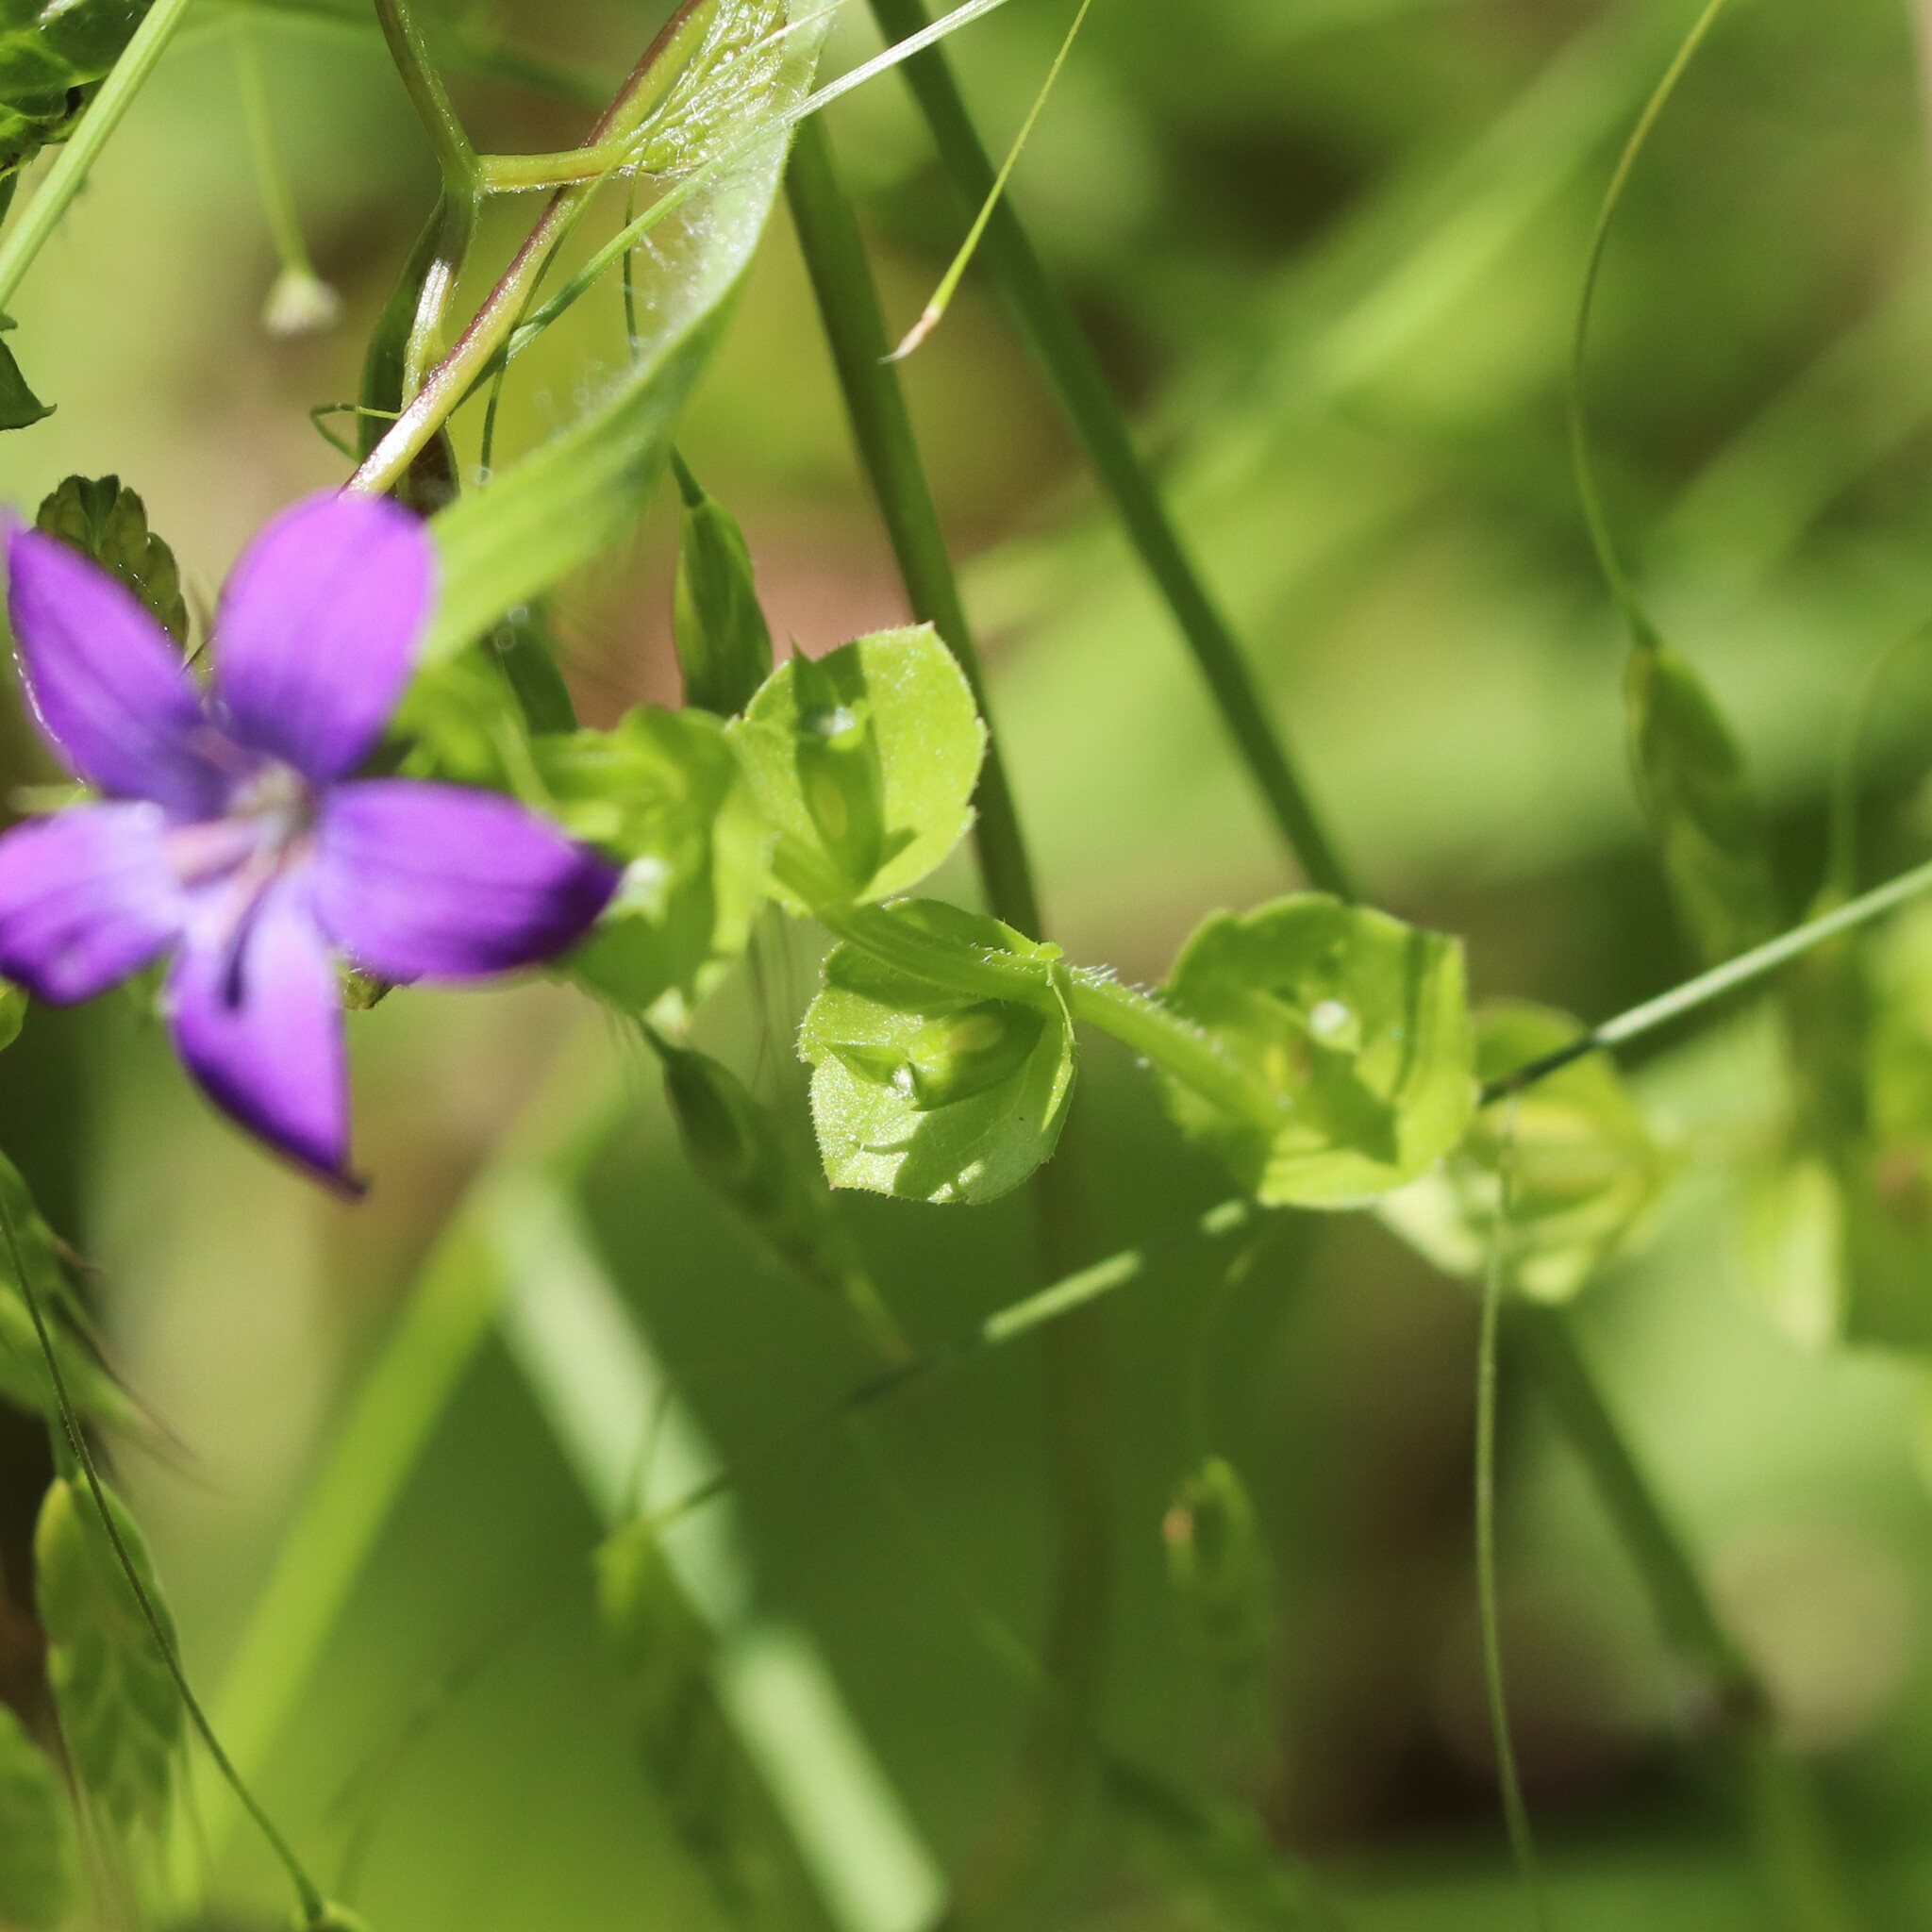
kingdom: Plantae
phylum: Tracheophyta
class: Magnoliopsida
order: Asterales
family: Campanulaceae
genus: Triodanis
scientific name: Triodanis perfoliata
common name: Clasping venus' looking-glass
